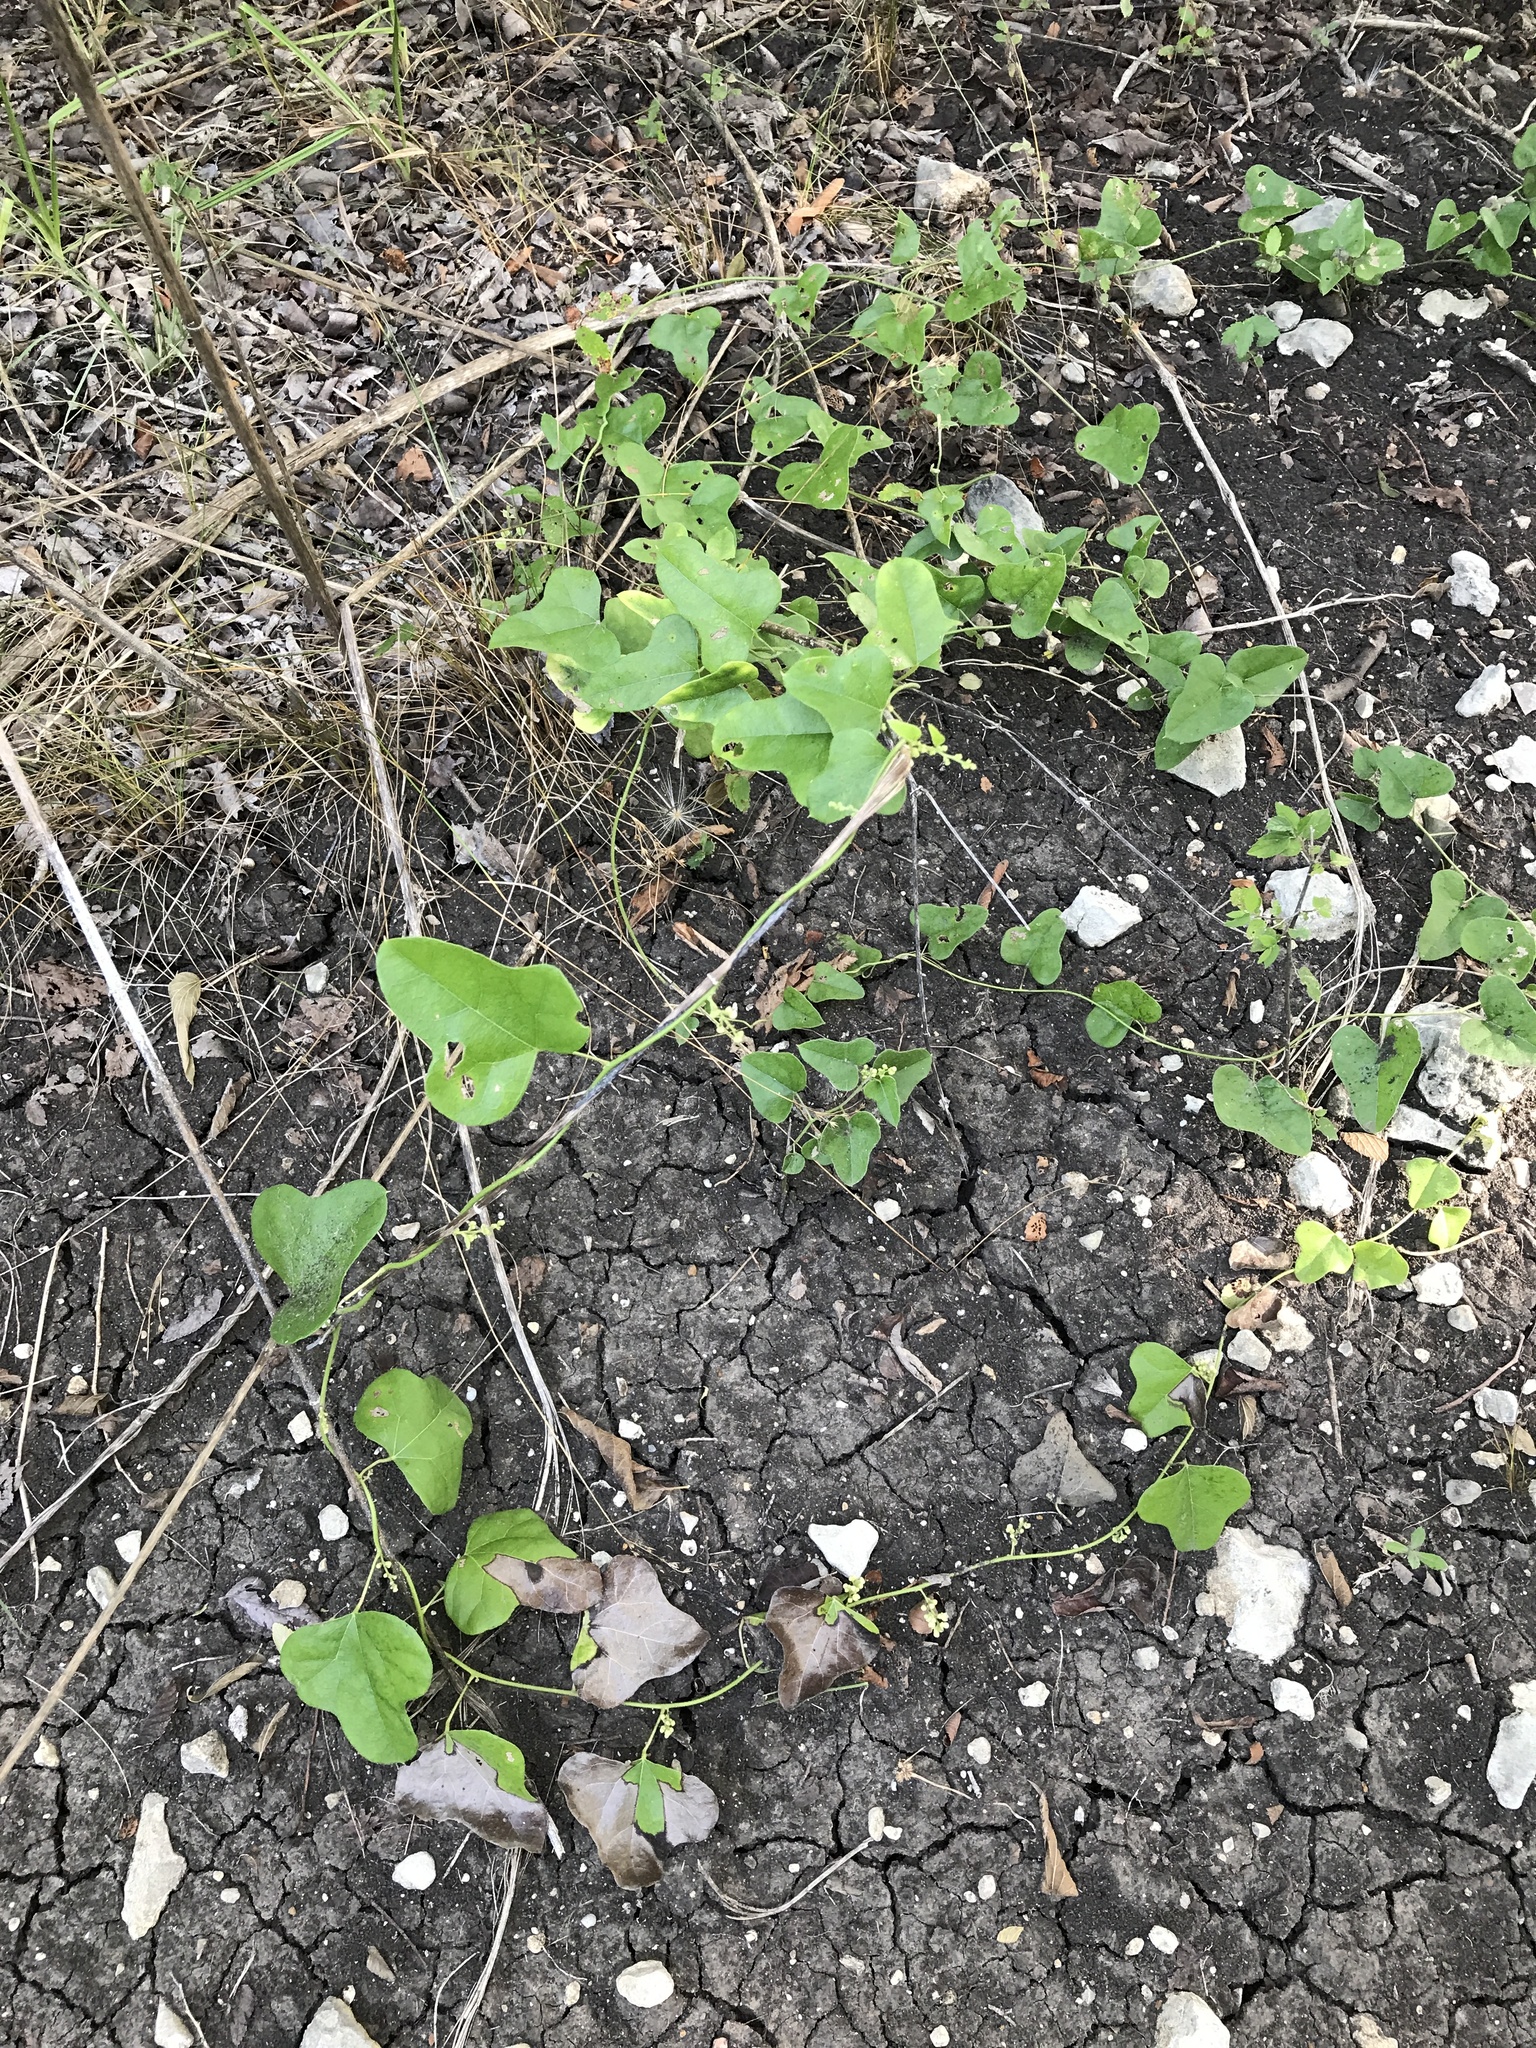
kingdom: Plantae
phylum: Tracheophyta
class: Magnoliopsida
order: Ranunculales
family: Menispermaceae
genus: Cocculus
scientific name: Cocculus carolinus
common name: Carolina moonseed
